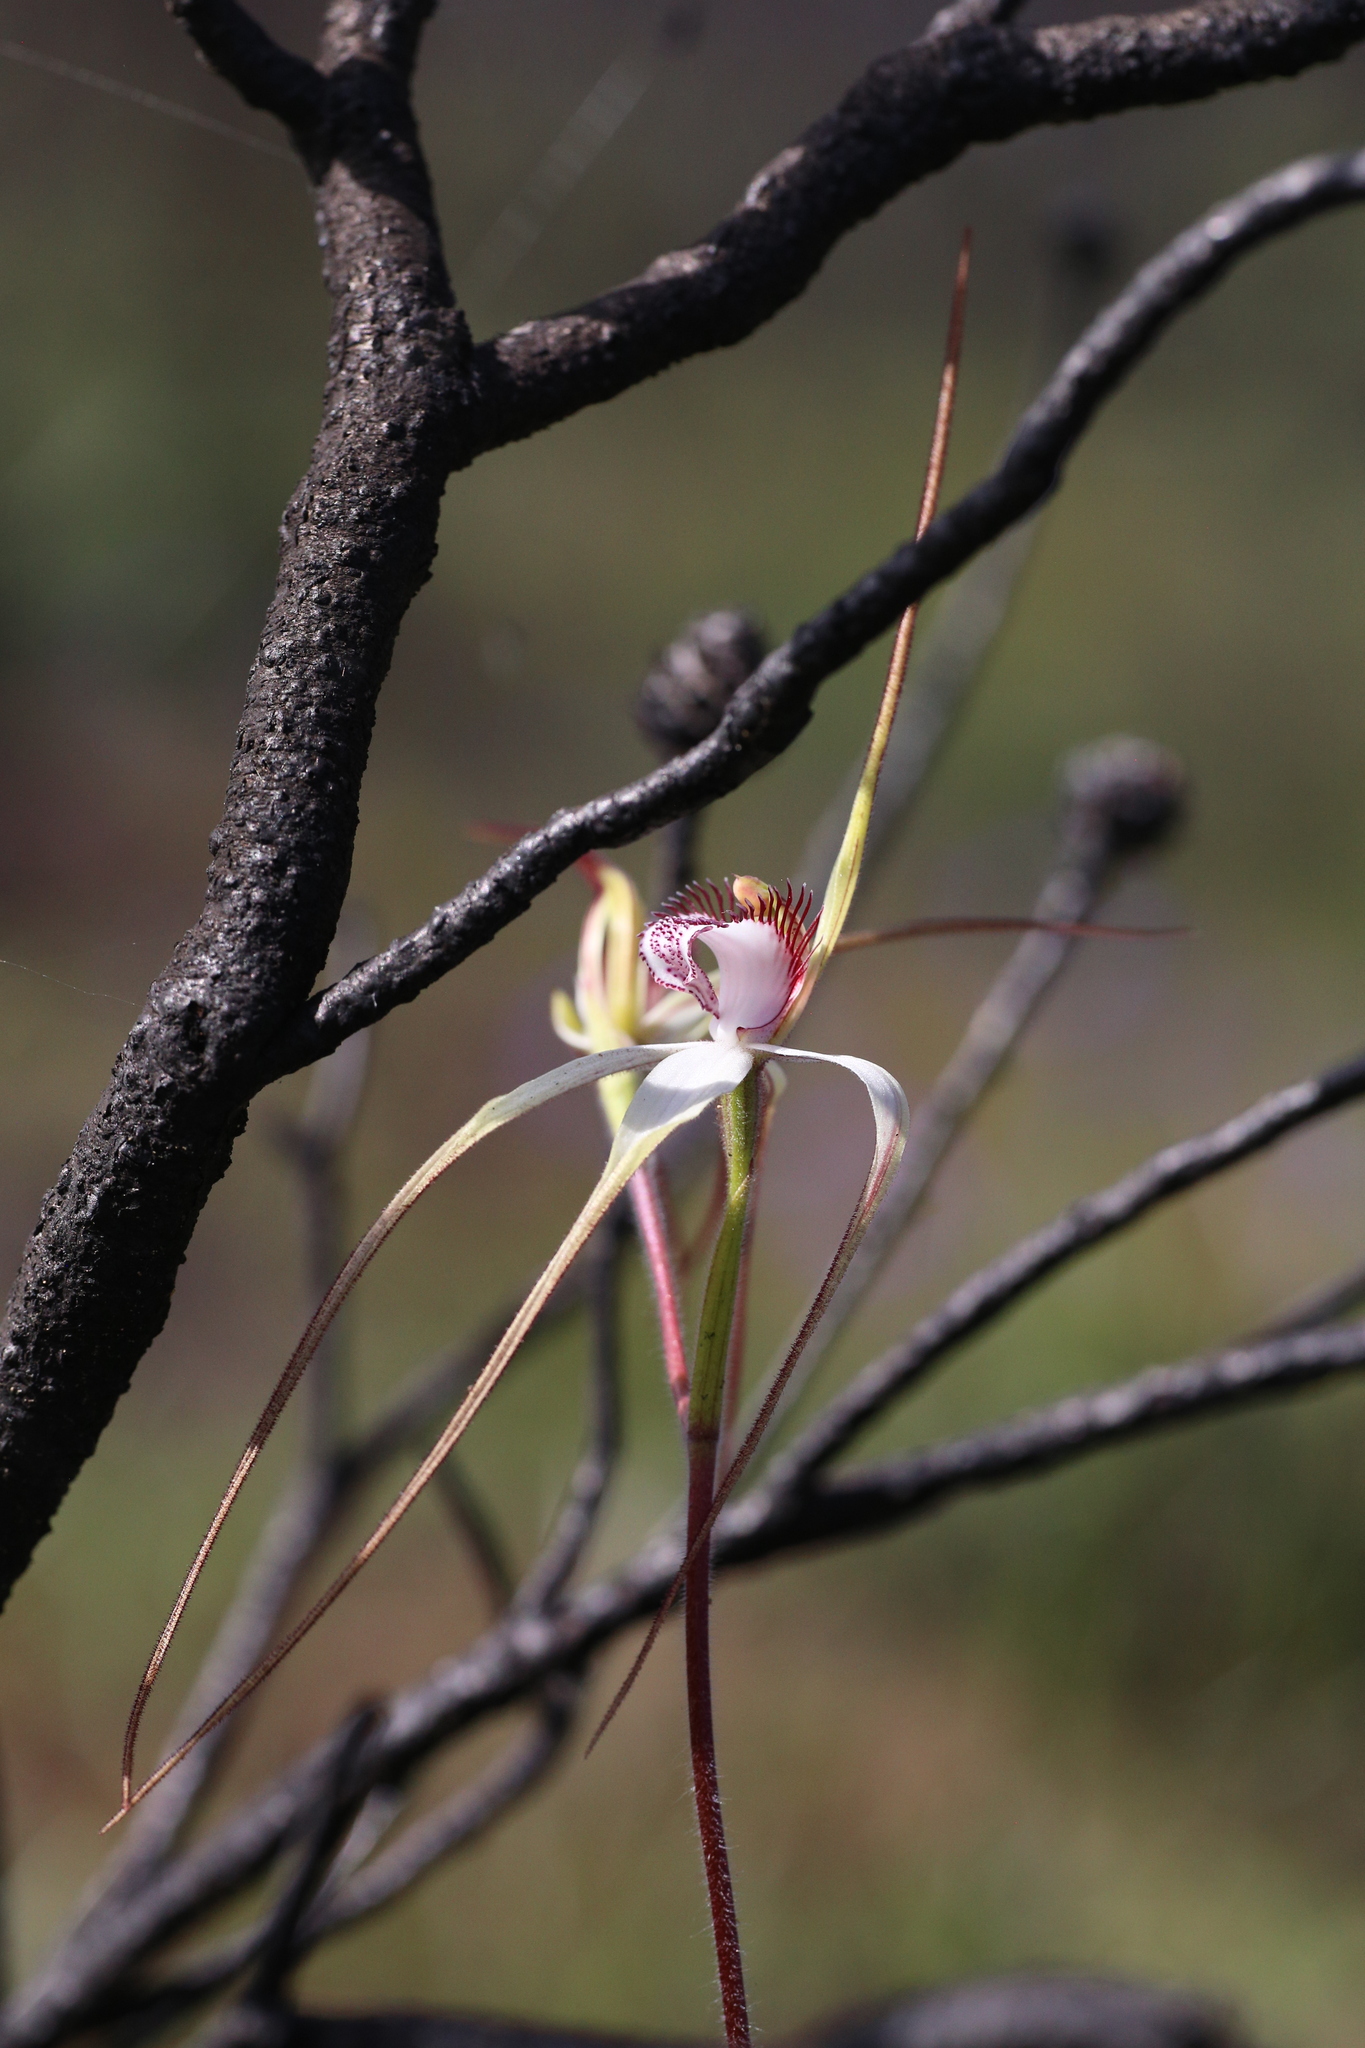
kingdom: Plantae
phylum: Tracheophyta
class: Liliopsida
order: Asparagales
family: Orchidaceae
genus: Caladenia
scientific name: Caladenia longicauda
